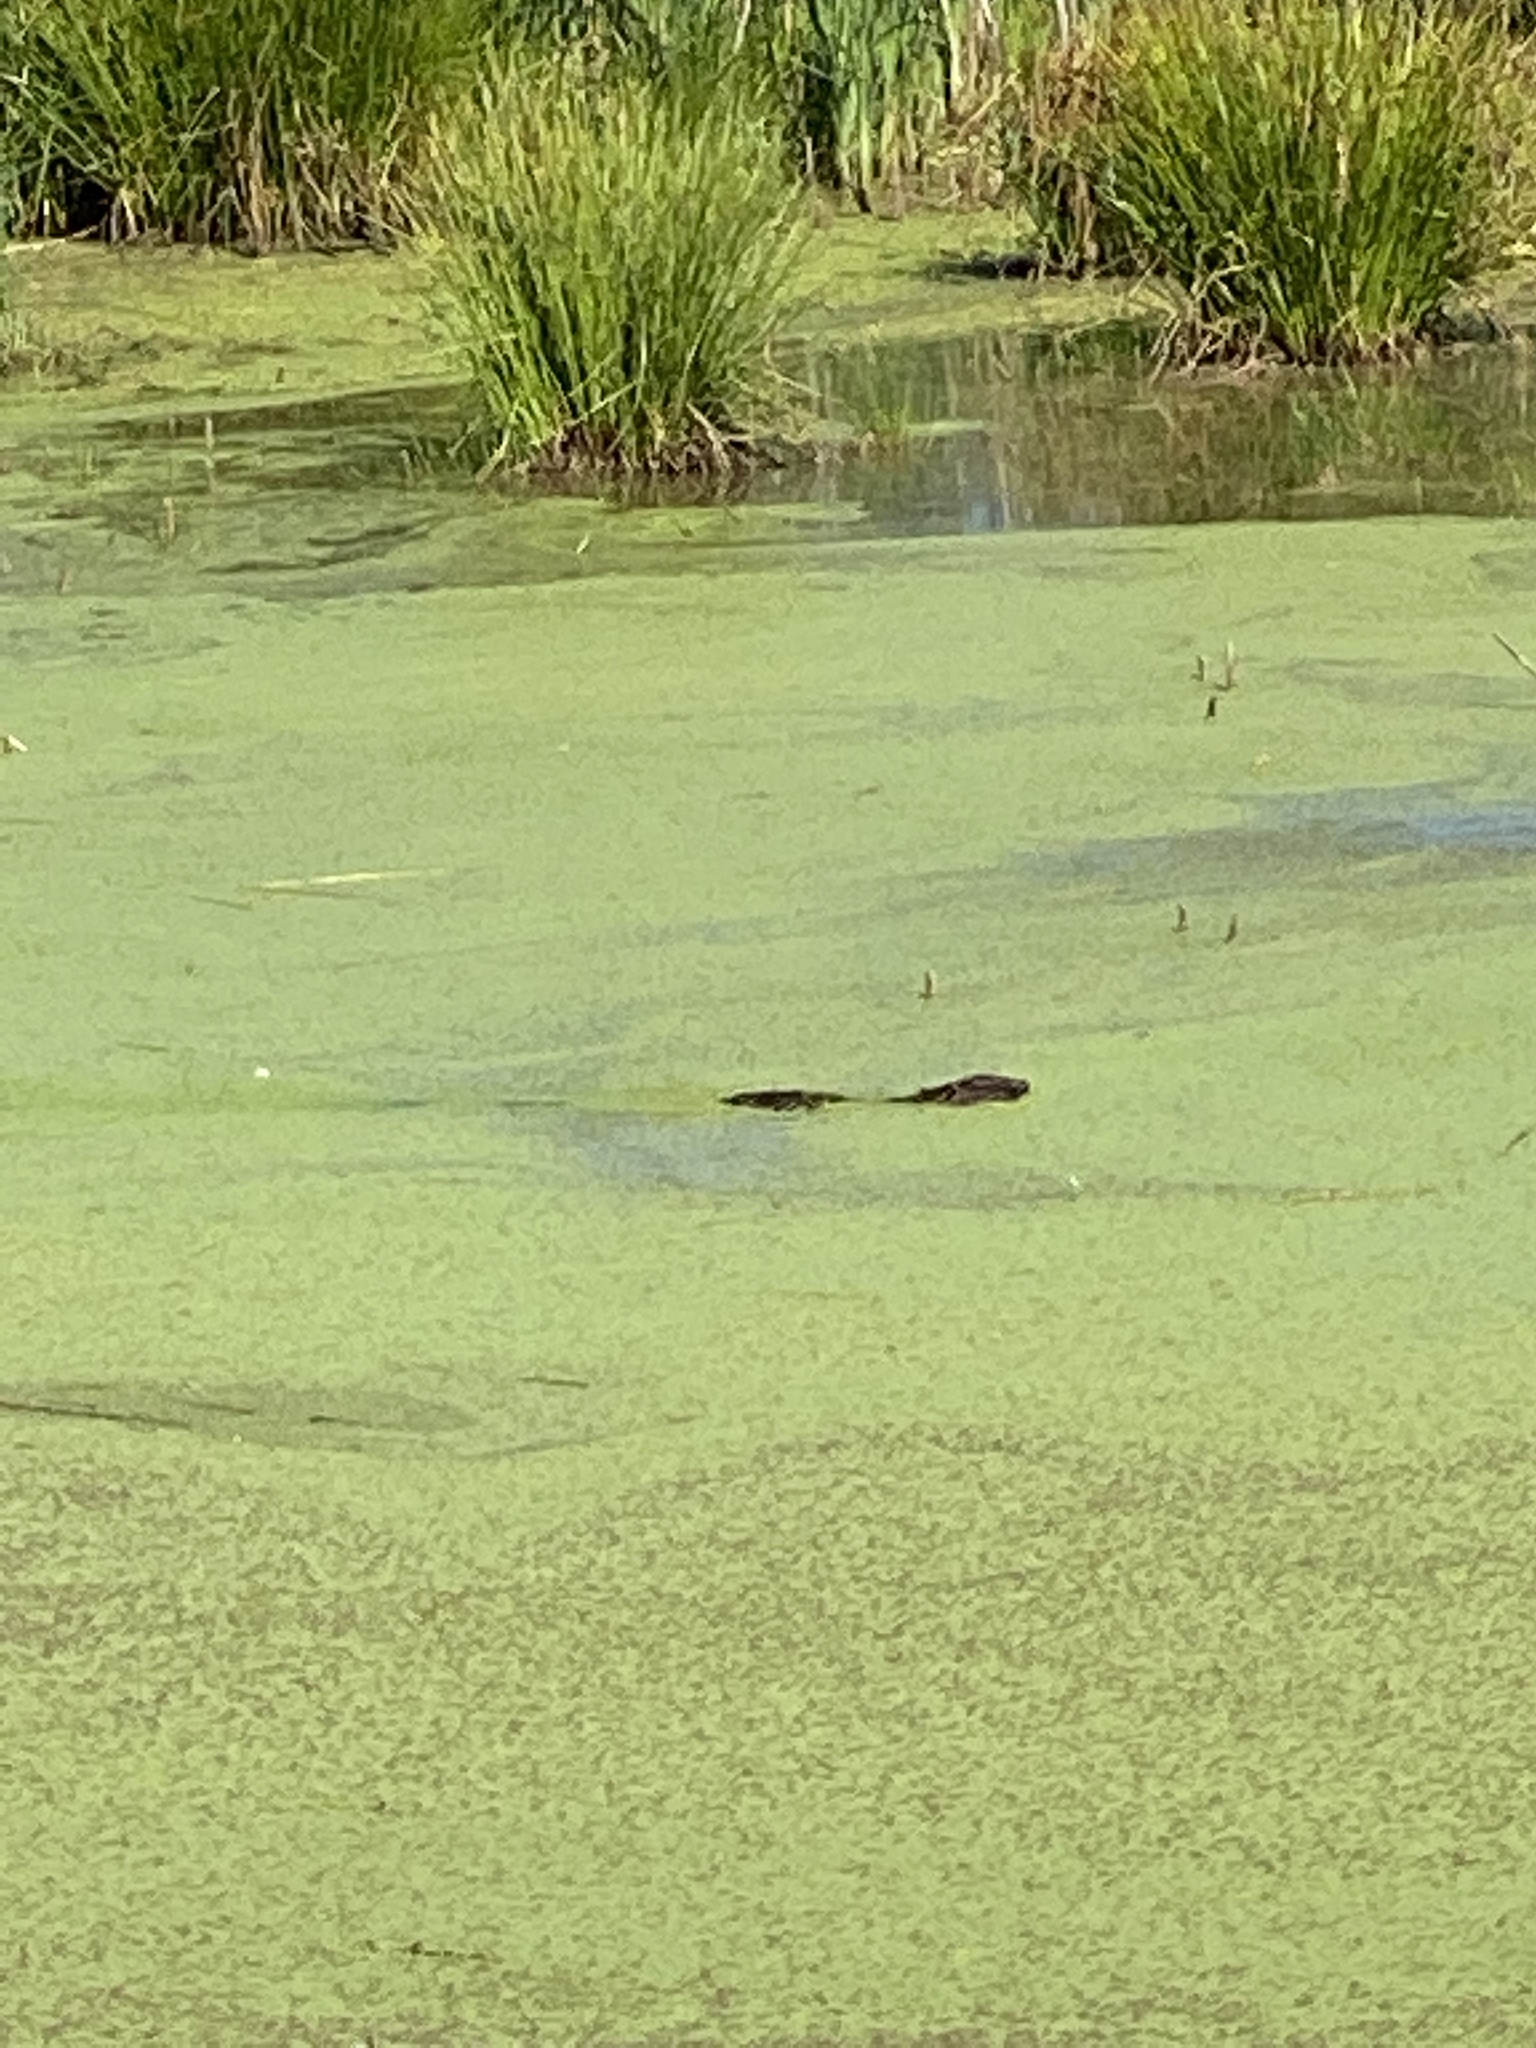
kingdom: Animalia
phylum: Chordata
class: Mammalia
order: Rodentia
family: Myocastoridae
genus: Myocastor
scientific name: Myocastor coypus
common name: Coypu
